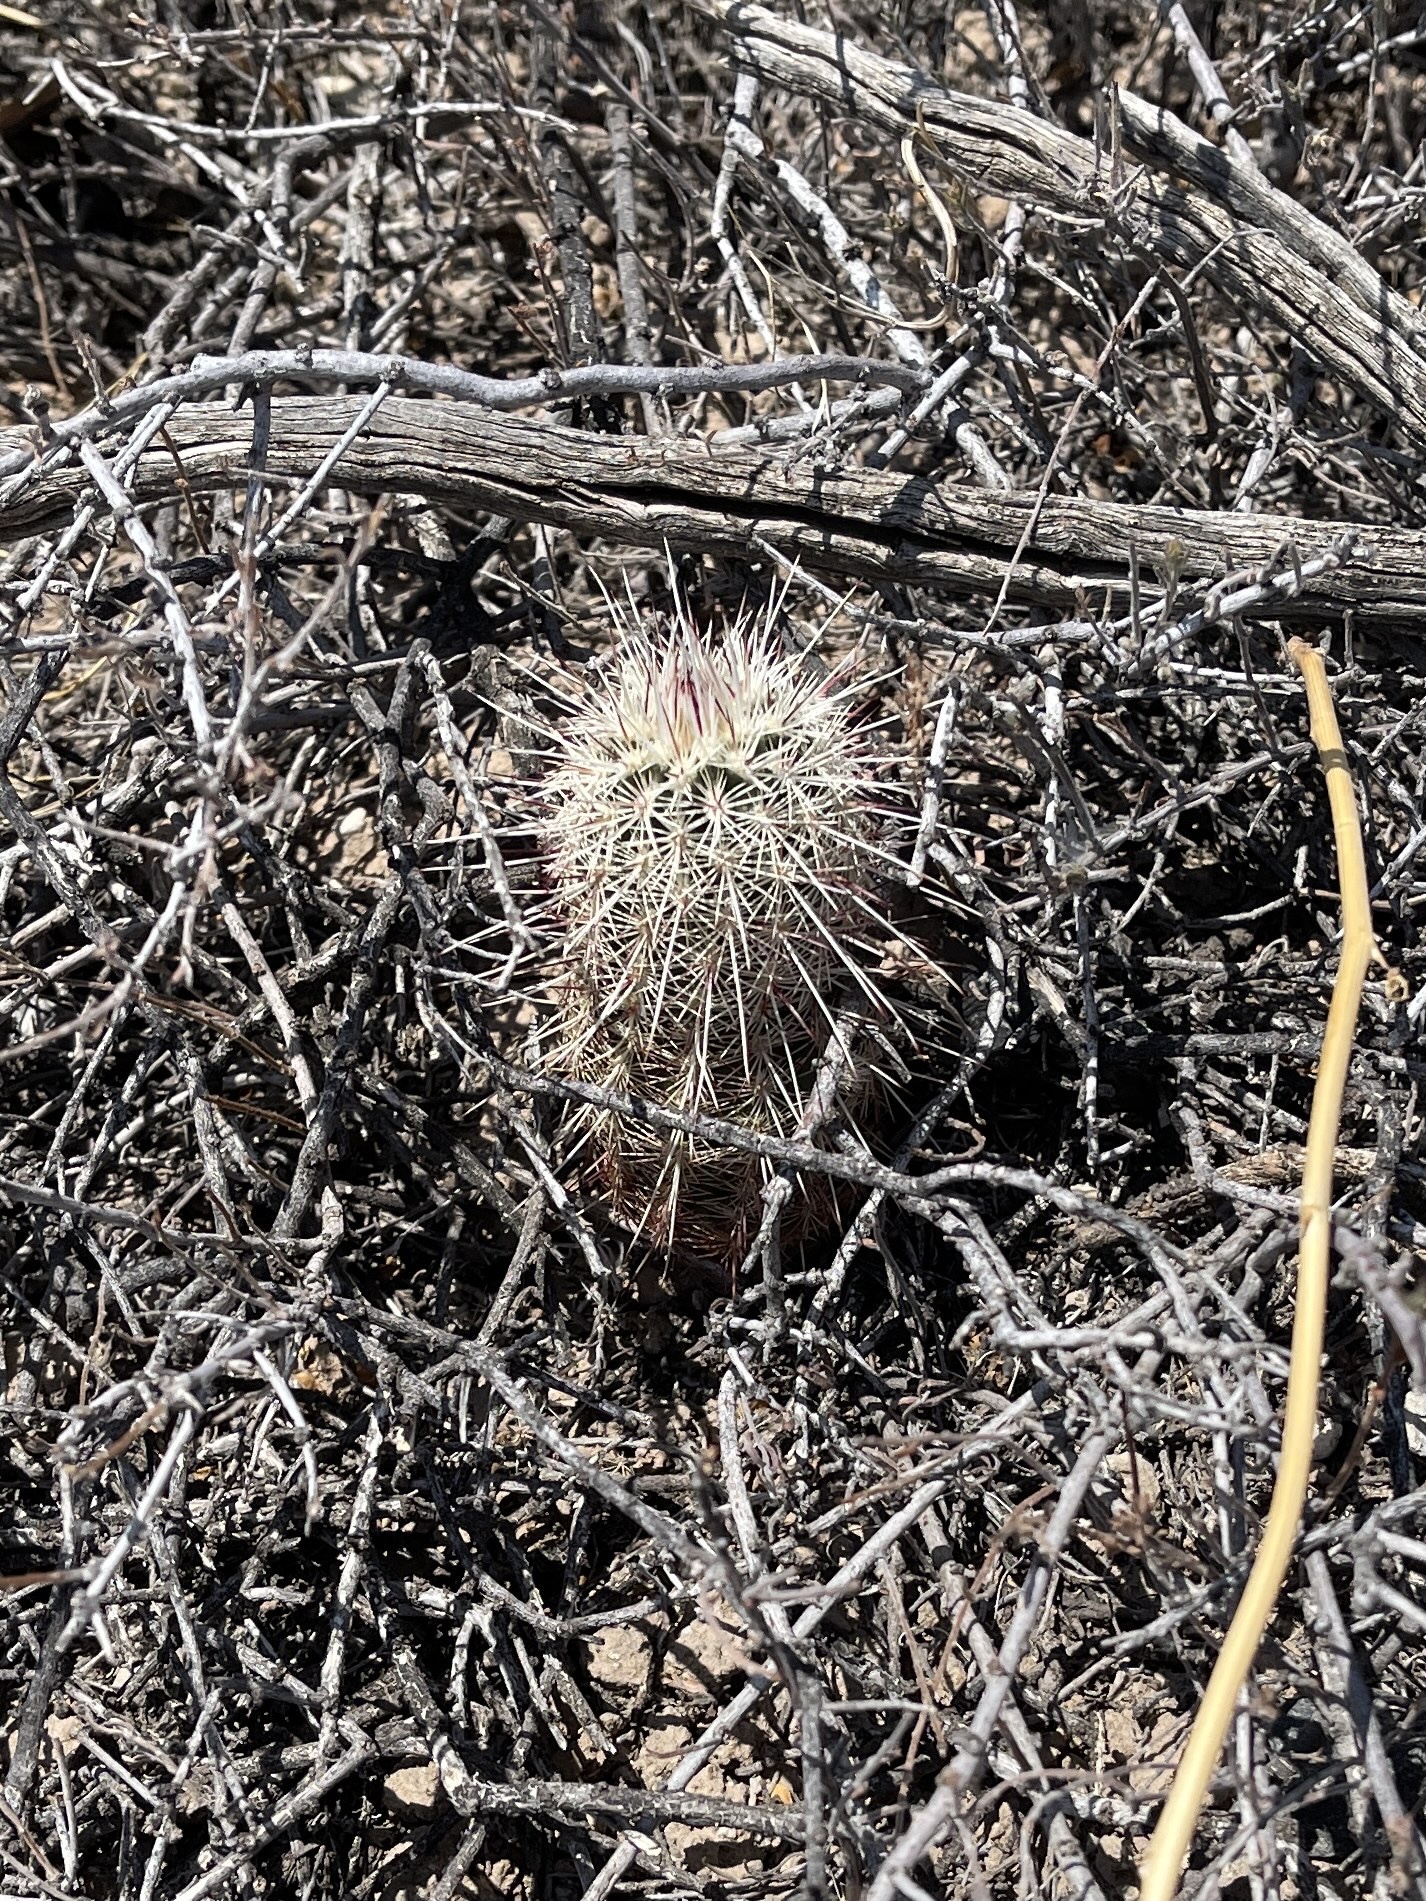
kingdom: Plantae
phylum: Tracheophyta
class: Magnoliopsida
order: Caryophyllales
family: Cactaceae
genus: Echinocereus
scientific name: Echinocereus viridiflorus
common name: Nylon hedgehog cactus
